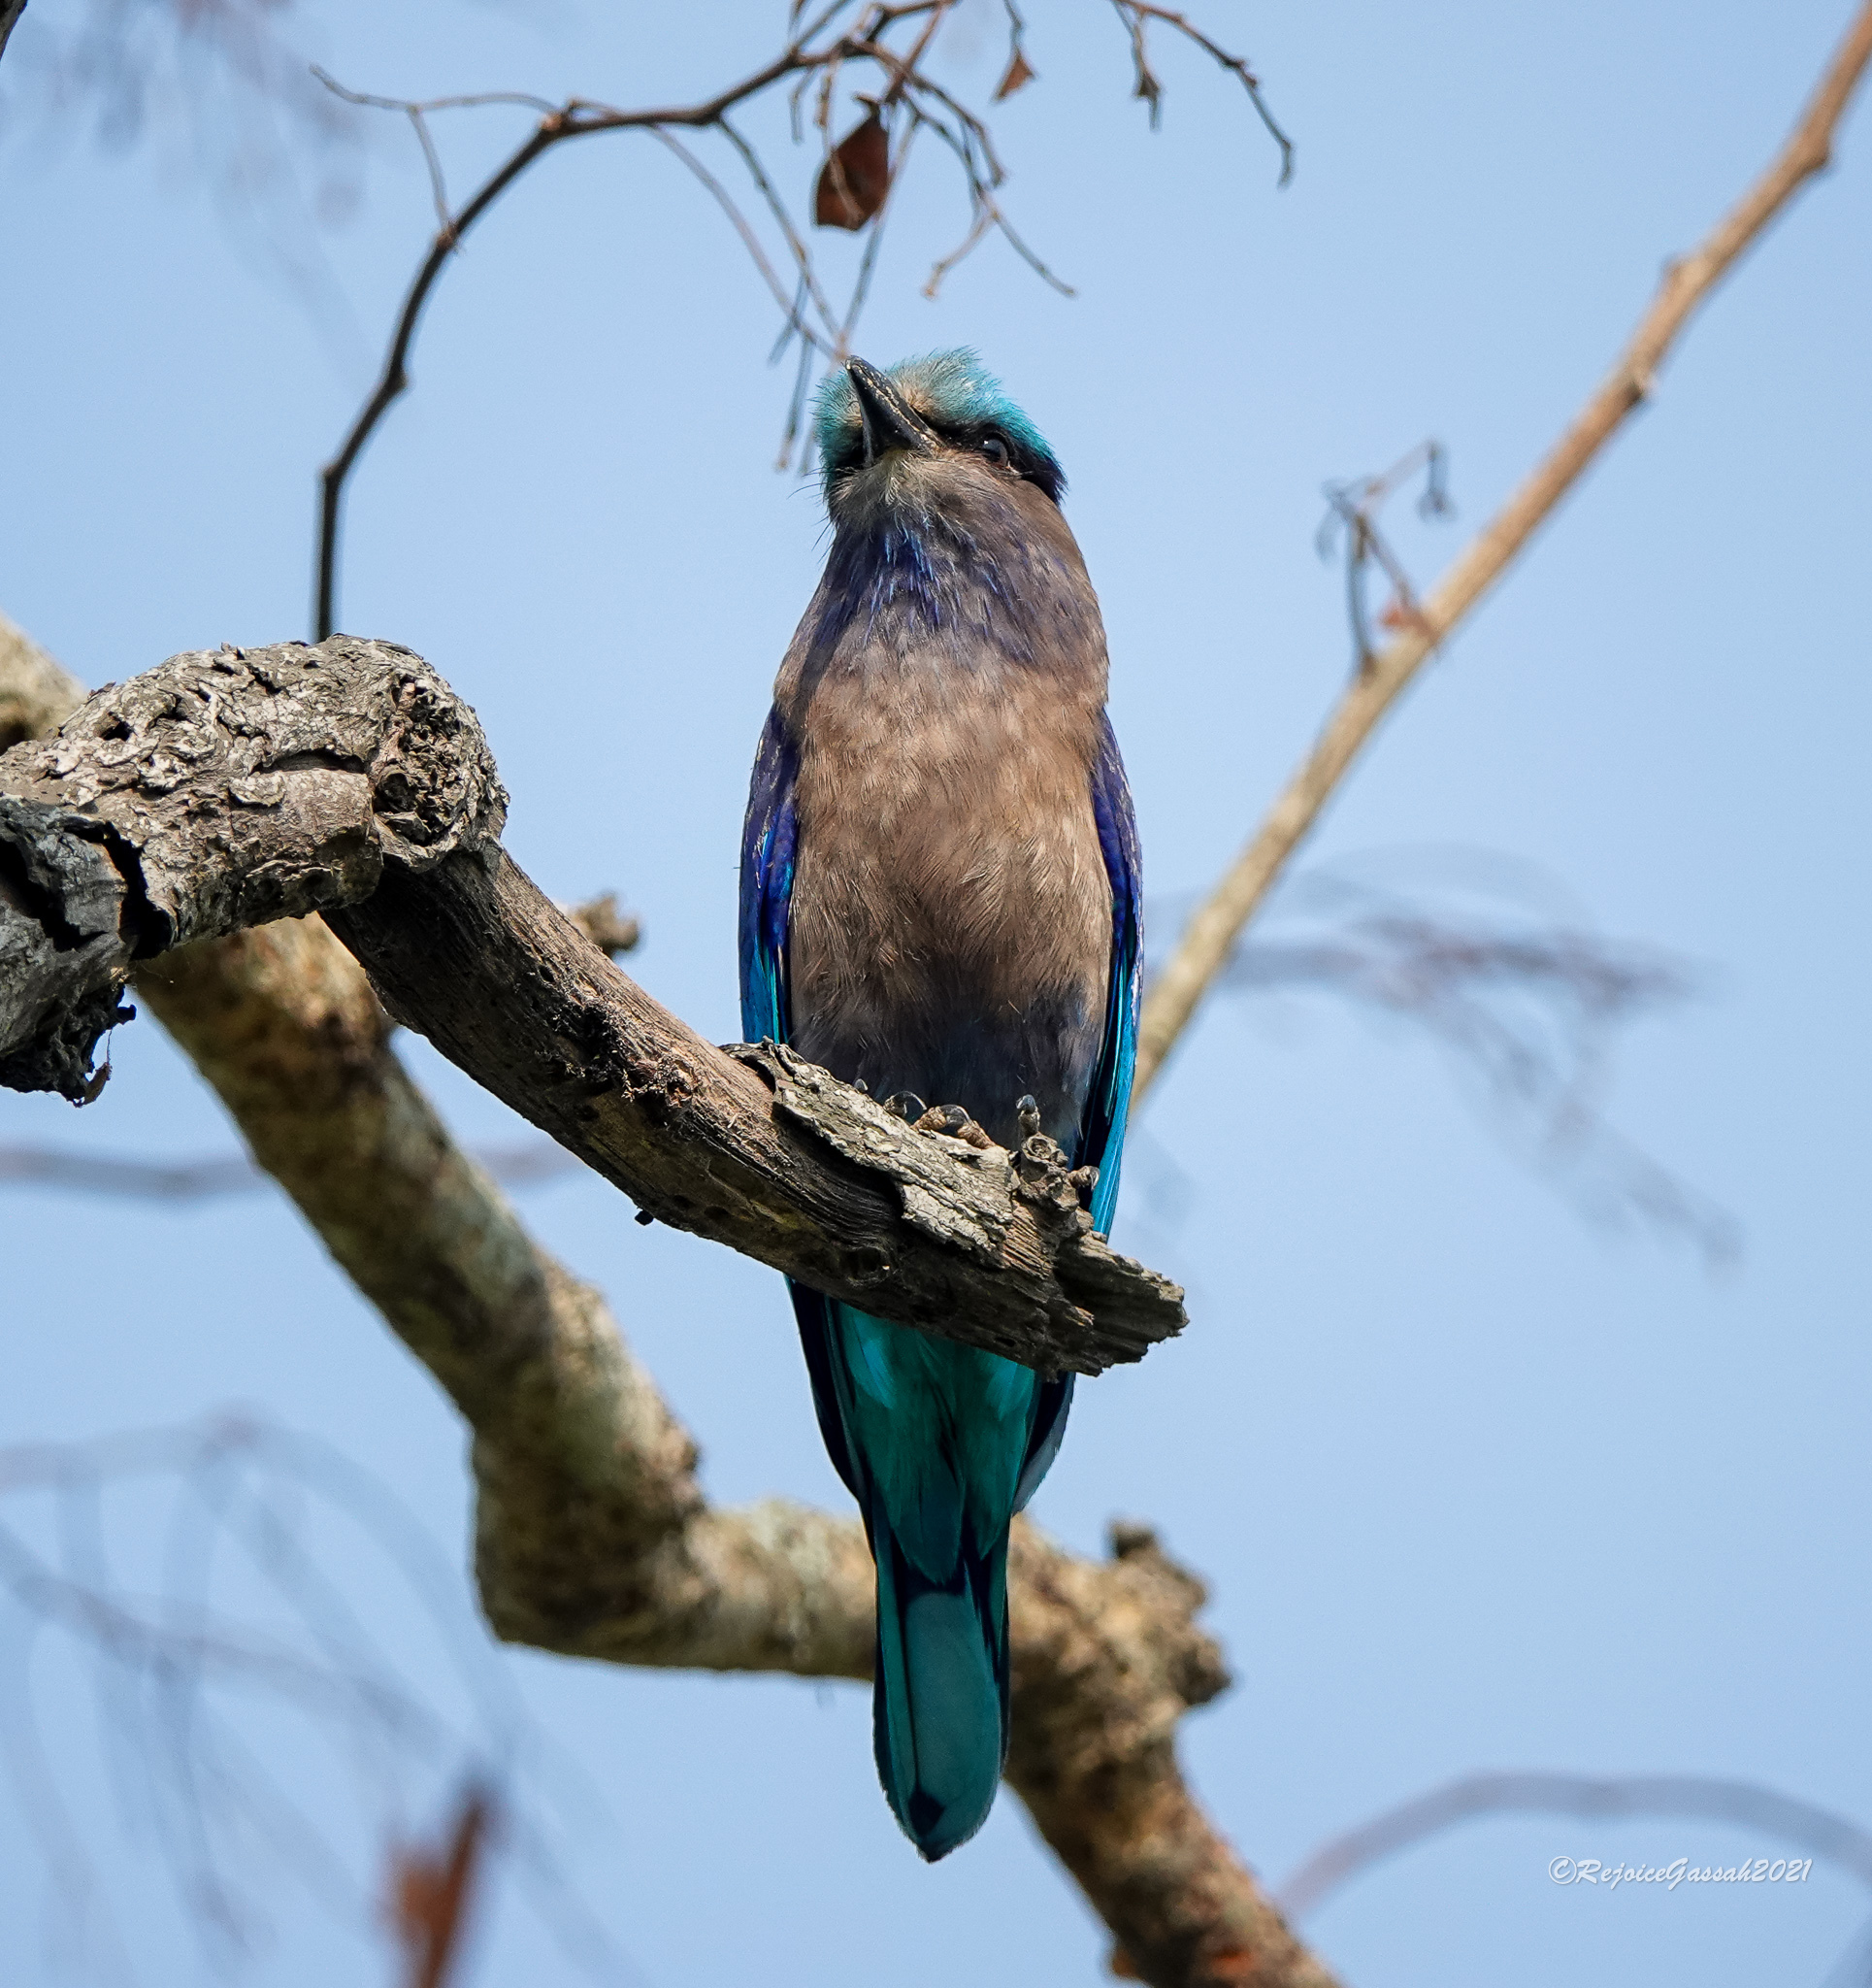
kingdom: Animalia
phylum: Chordata
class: Aves
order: Coraciiformes
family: Coraciidae
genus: Coracias
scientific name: Coracias affinis
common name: Indochinese roller
